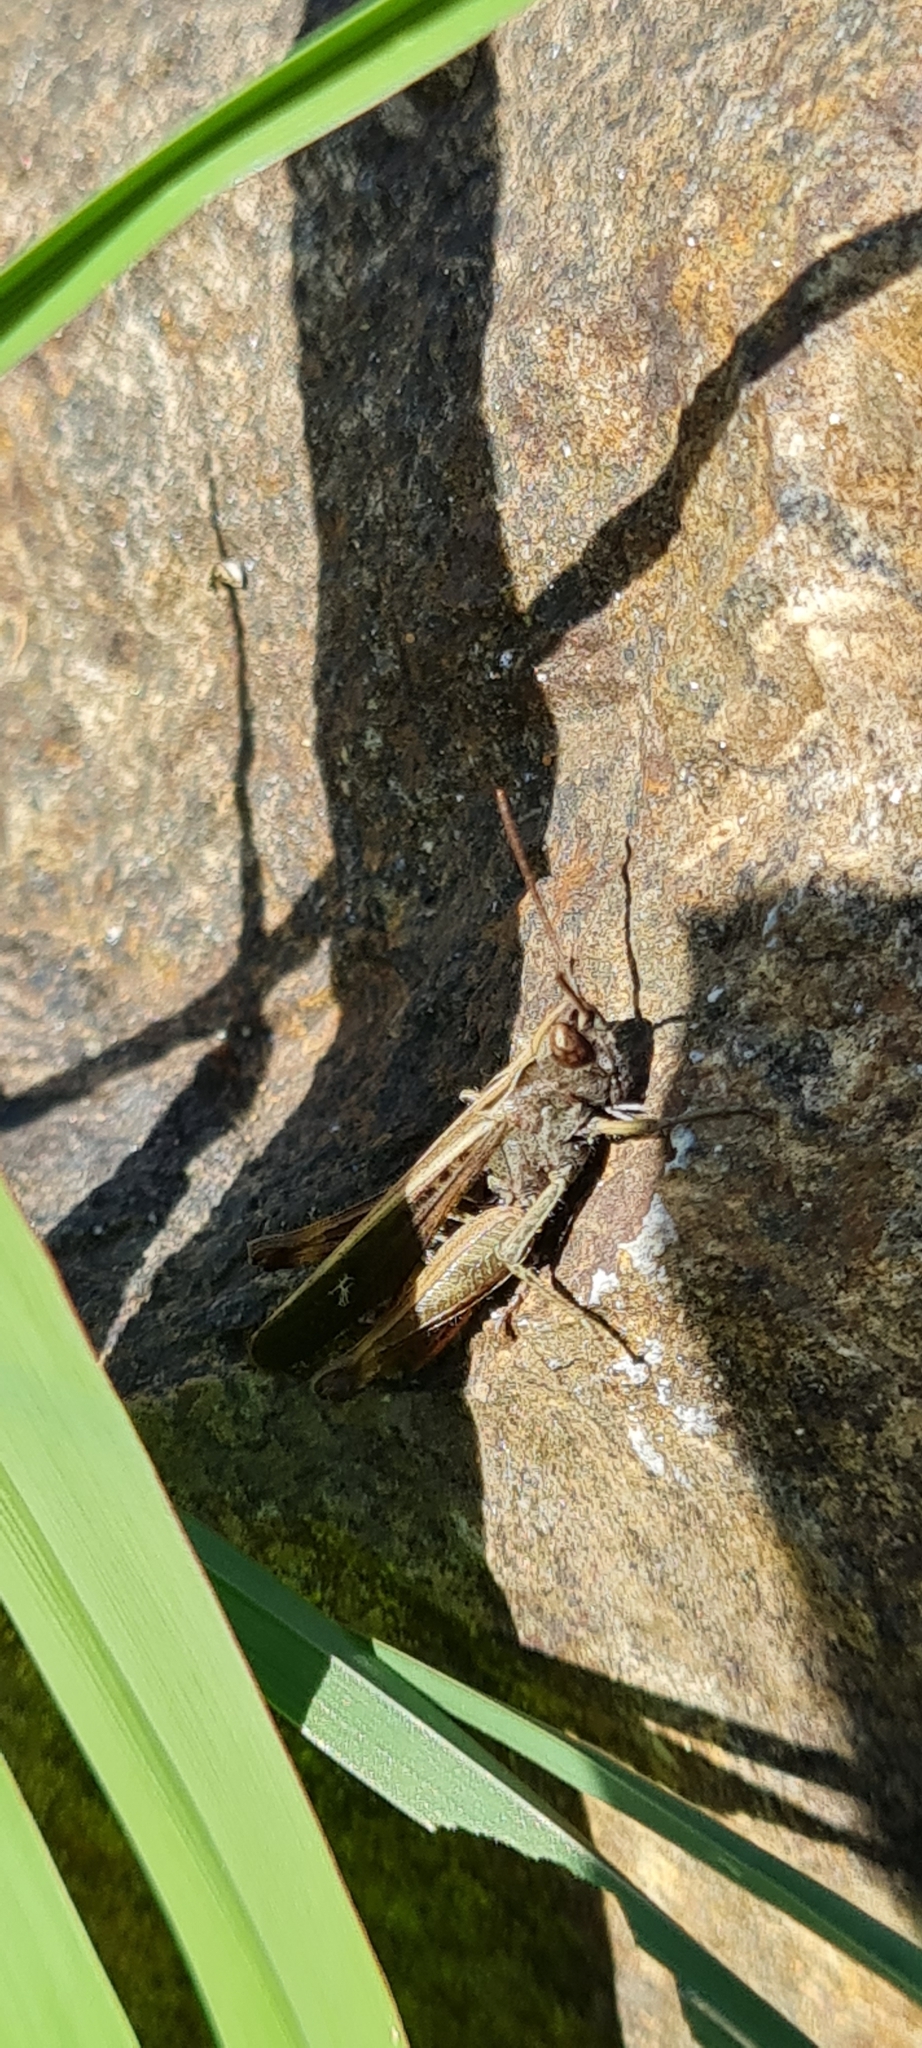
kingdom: Animalia
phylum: Arthropoda
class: Insecta
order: Orthoptera
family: Acrididae
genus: Omocestus
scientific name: Omocestus rufipes
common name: Woodland grasshopper
